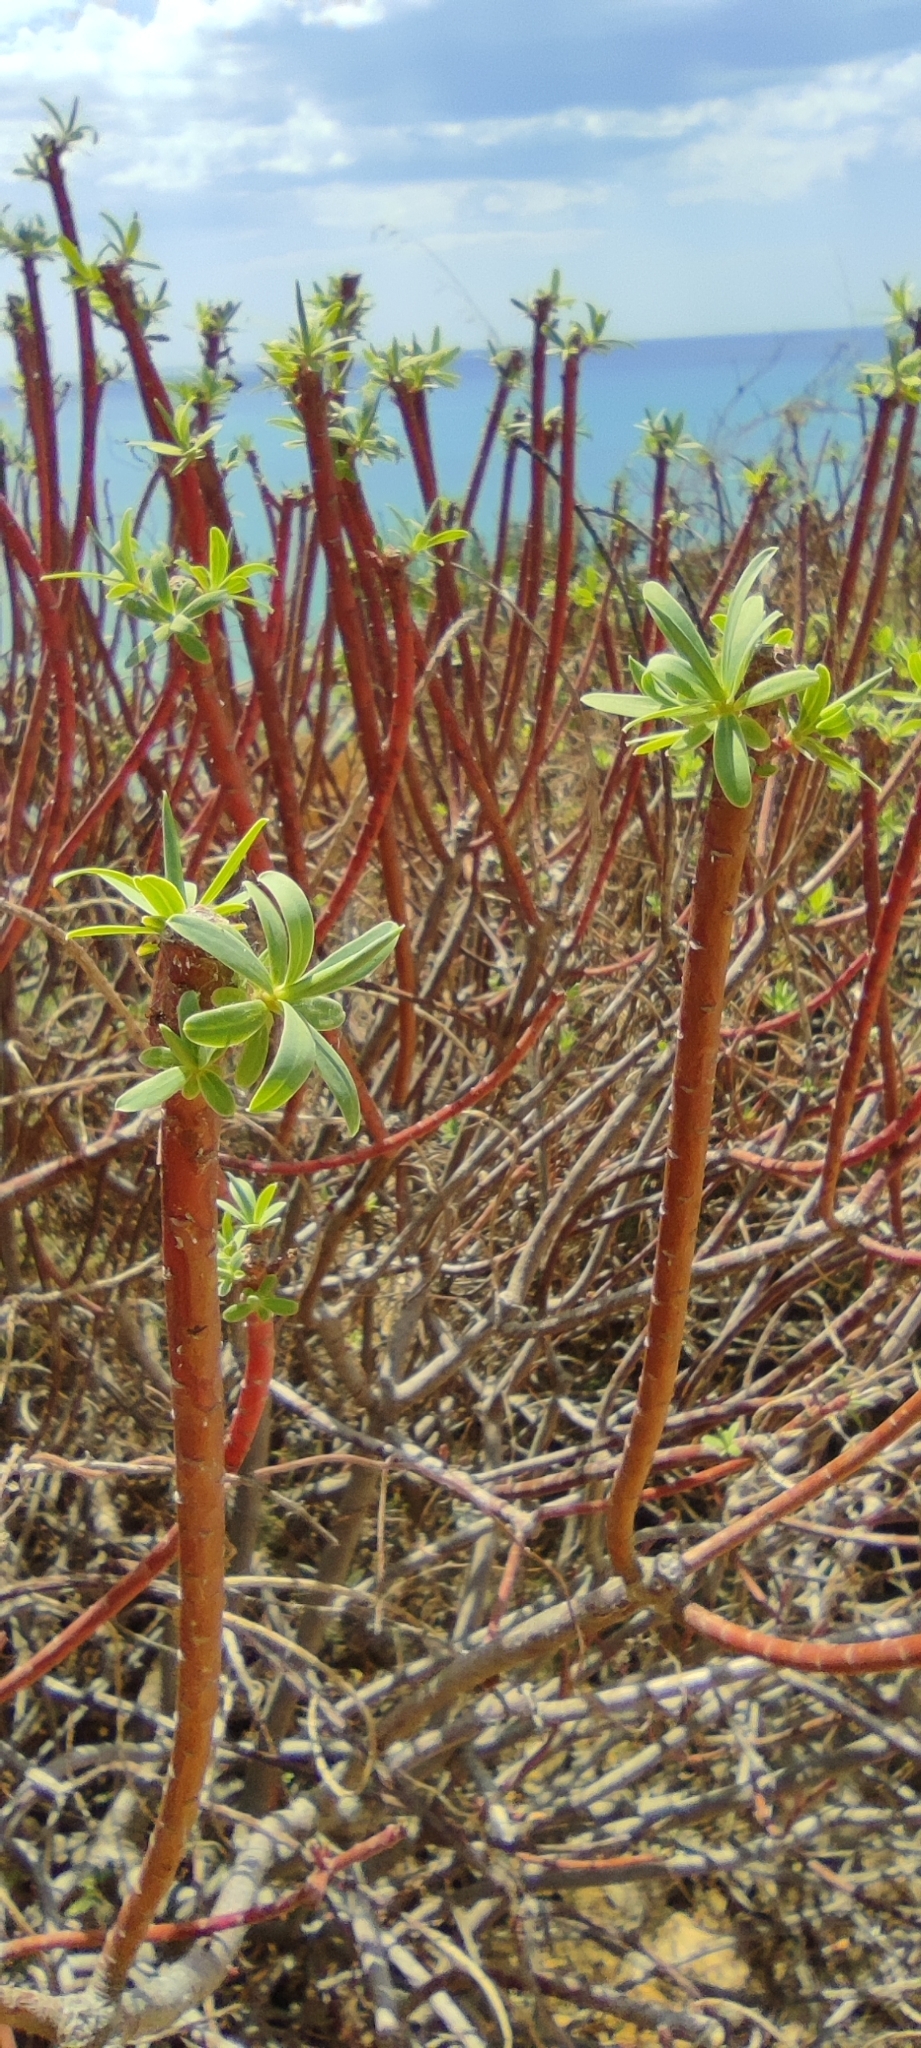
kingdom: Plantae
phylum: Tracheophyta
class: Magnoliopsida
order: Malpighiales
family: Euphorbiaceae
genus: Euphorbia
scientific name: Euphorbia dendroides
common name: Tree spurge
